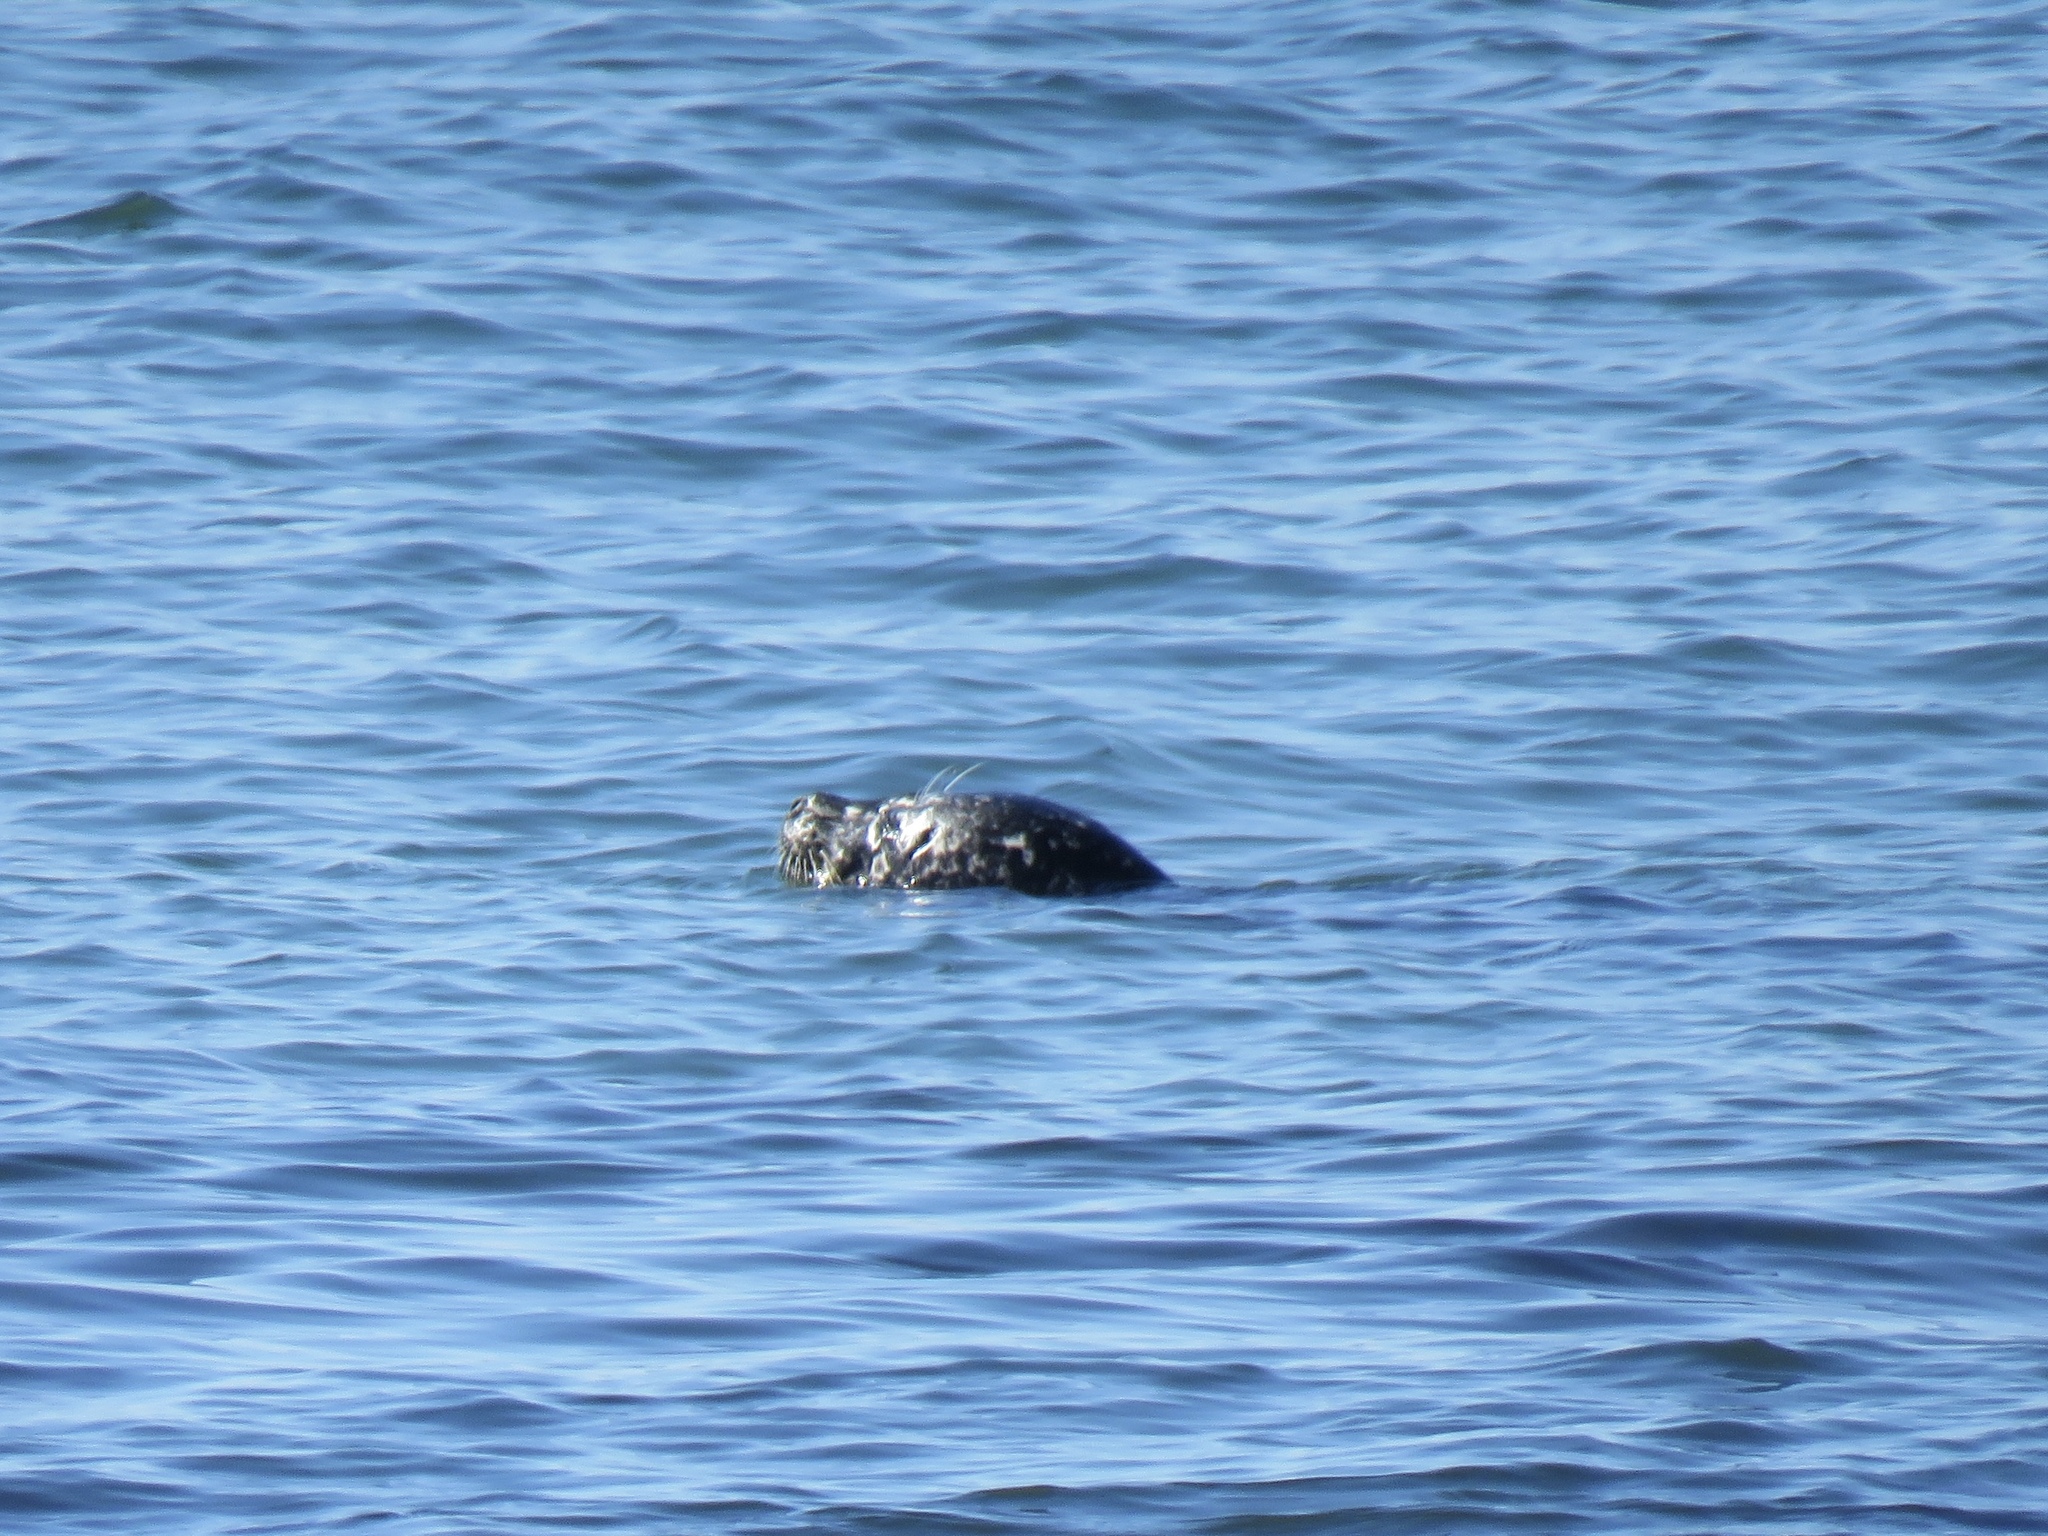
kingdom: Animalia
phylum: Chordata
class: Mammalia
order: Carnivora
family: Phocidae
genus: Phoca
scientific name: Phoca vitulina
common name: Harbor seal
